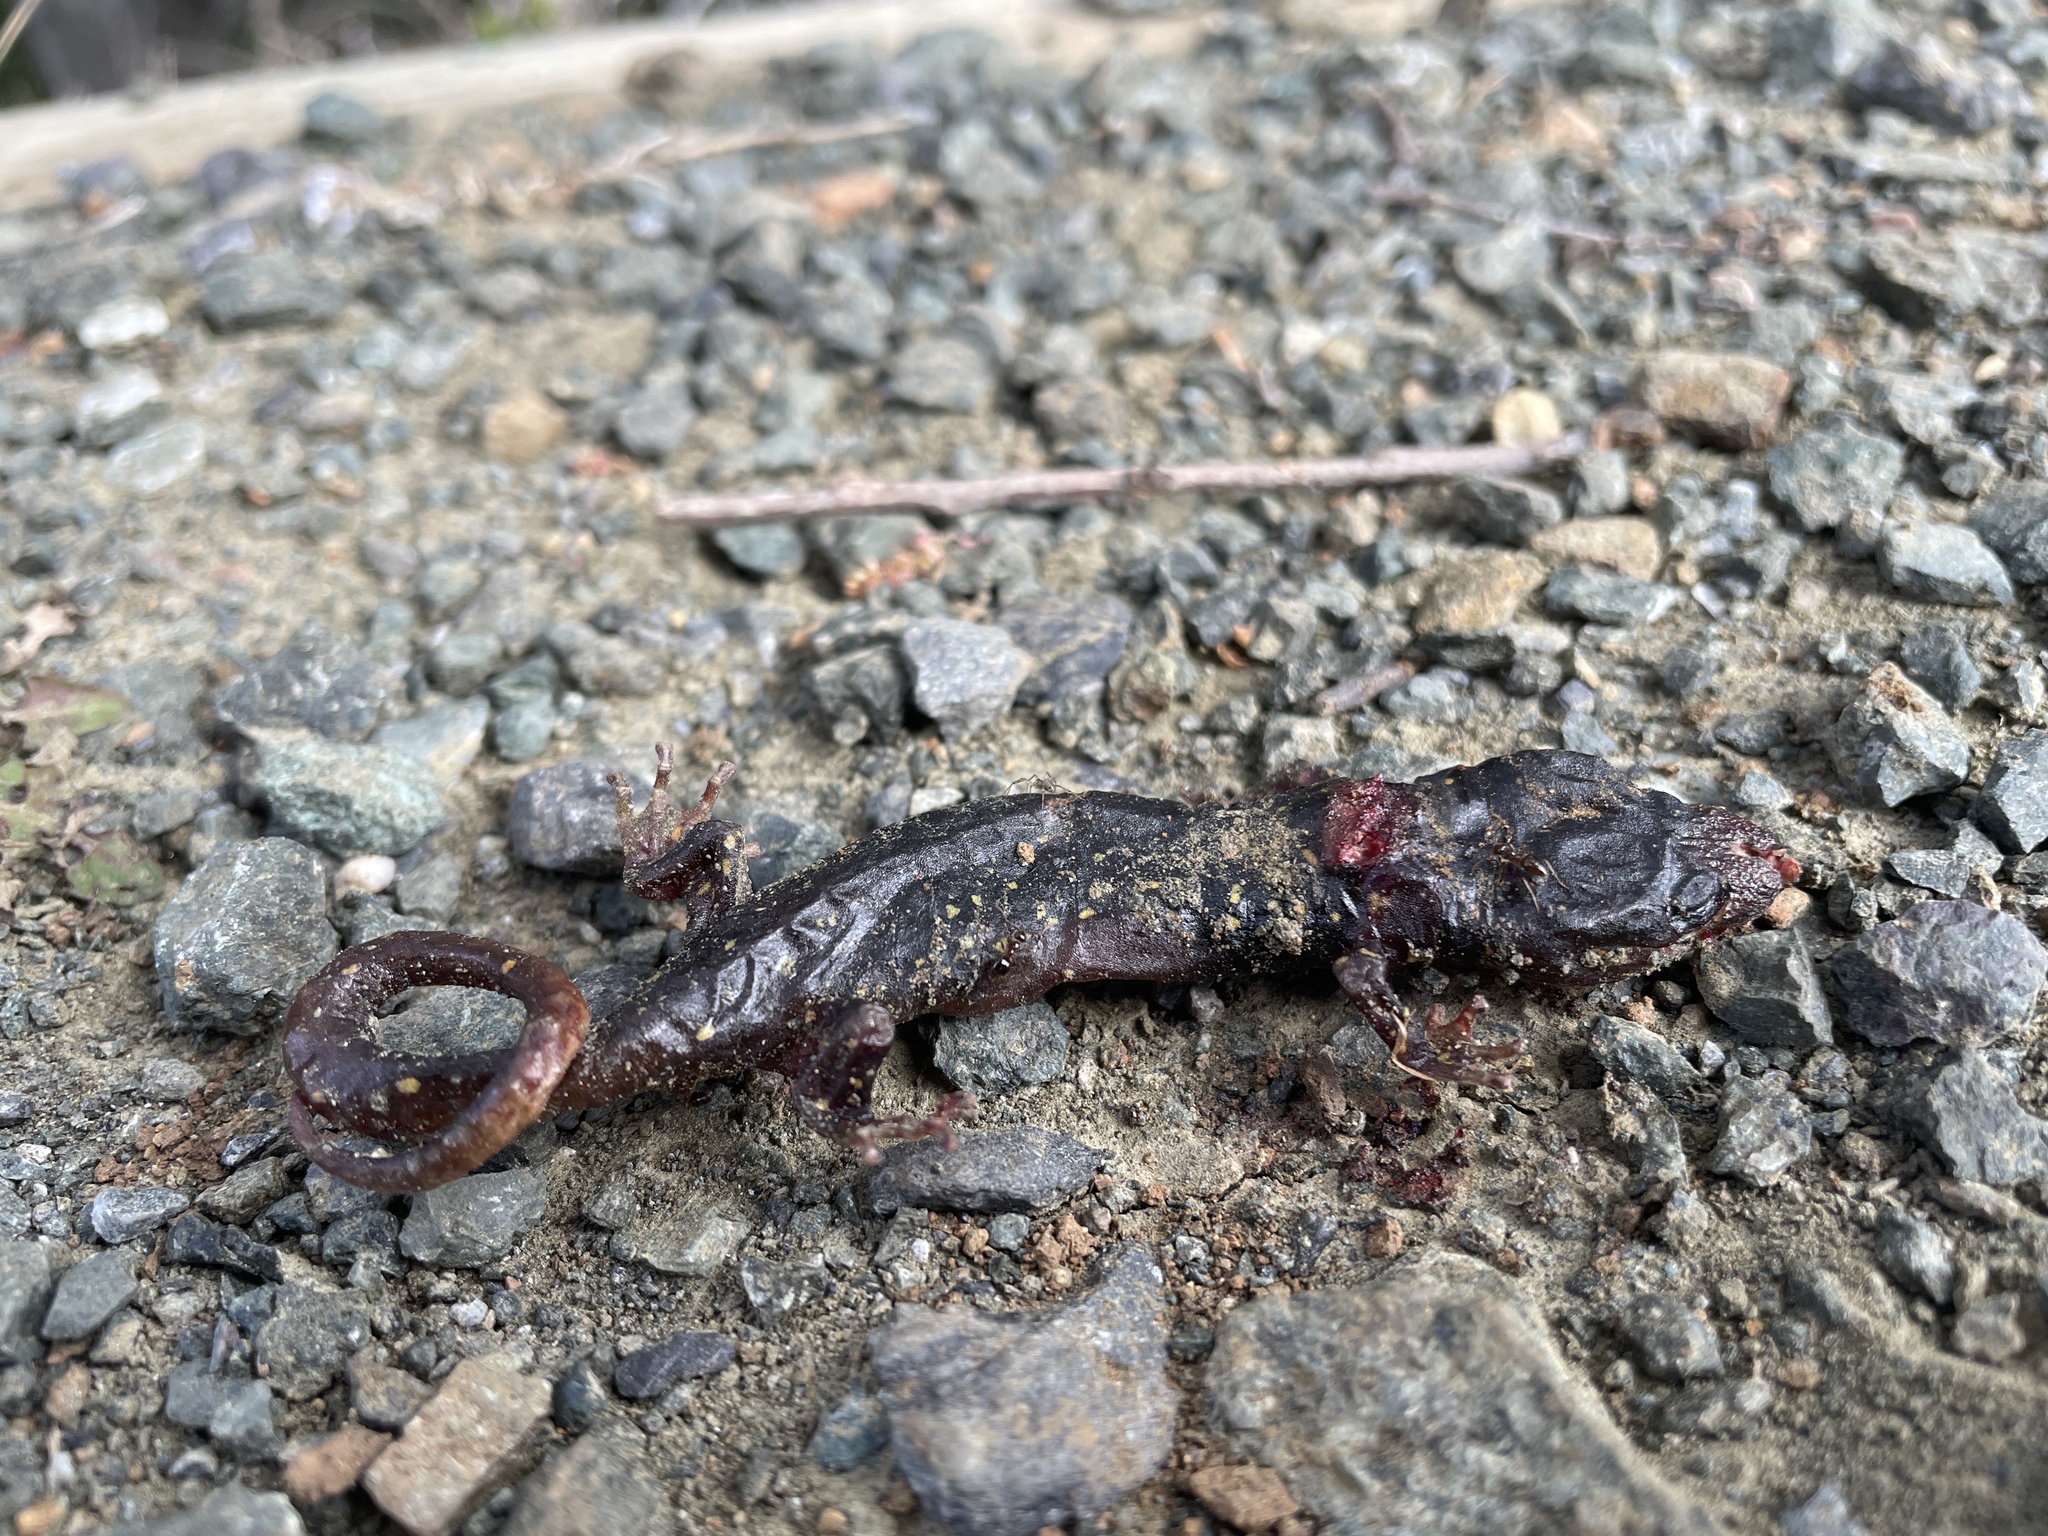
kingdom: Animalia
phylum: Chordata
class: Amphibia
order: Caudata
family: Plethodontidae
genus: Aneides
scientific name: Aneides lugubris
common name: Arboreal salamander
